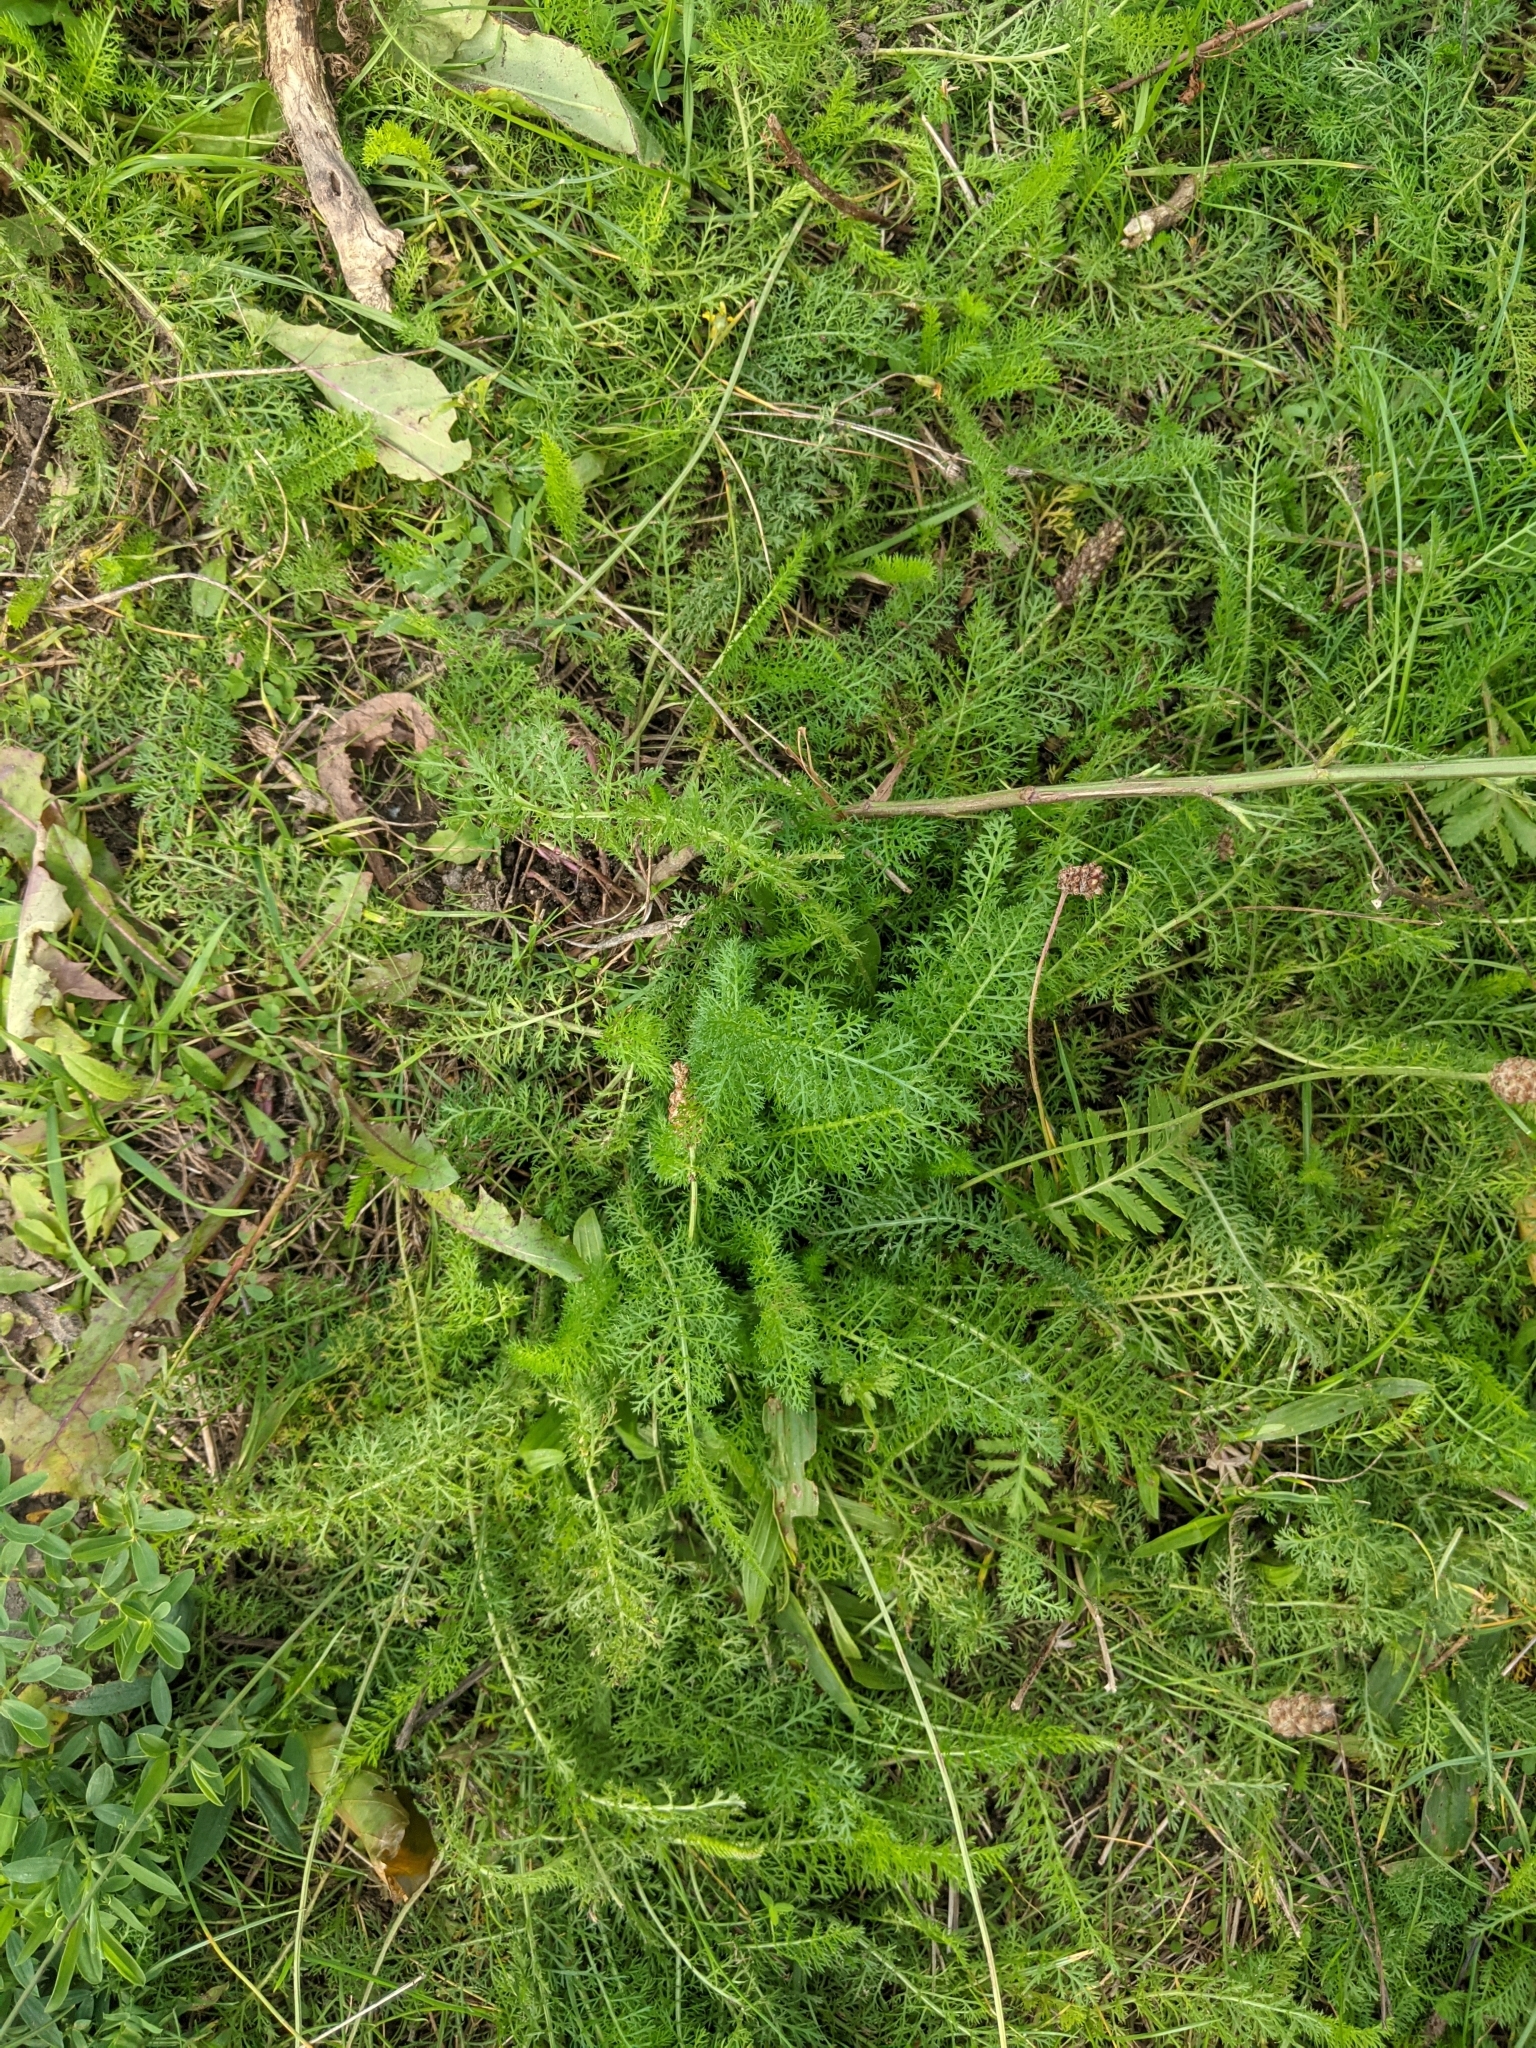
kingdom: Plantae
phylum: Tracheophyta
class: Magnoliopsida
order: Asterales
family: Asteraceae
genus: Achillea
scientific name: Achillea millefolium
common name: Yarrow
